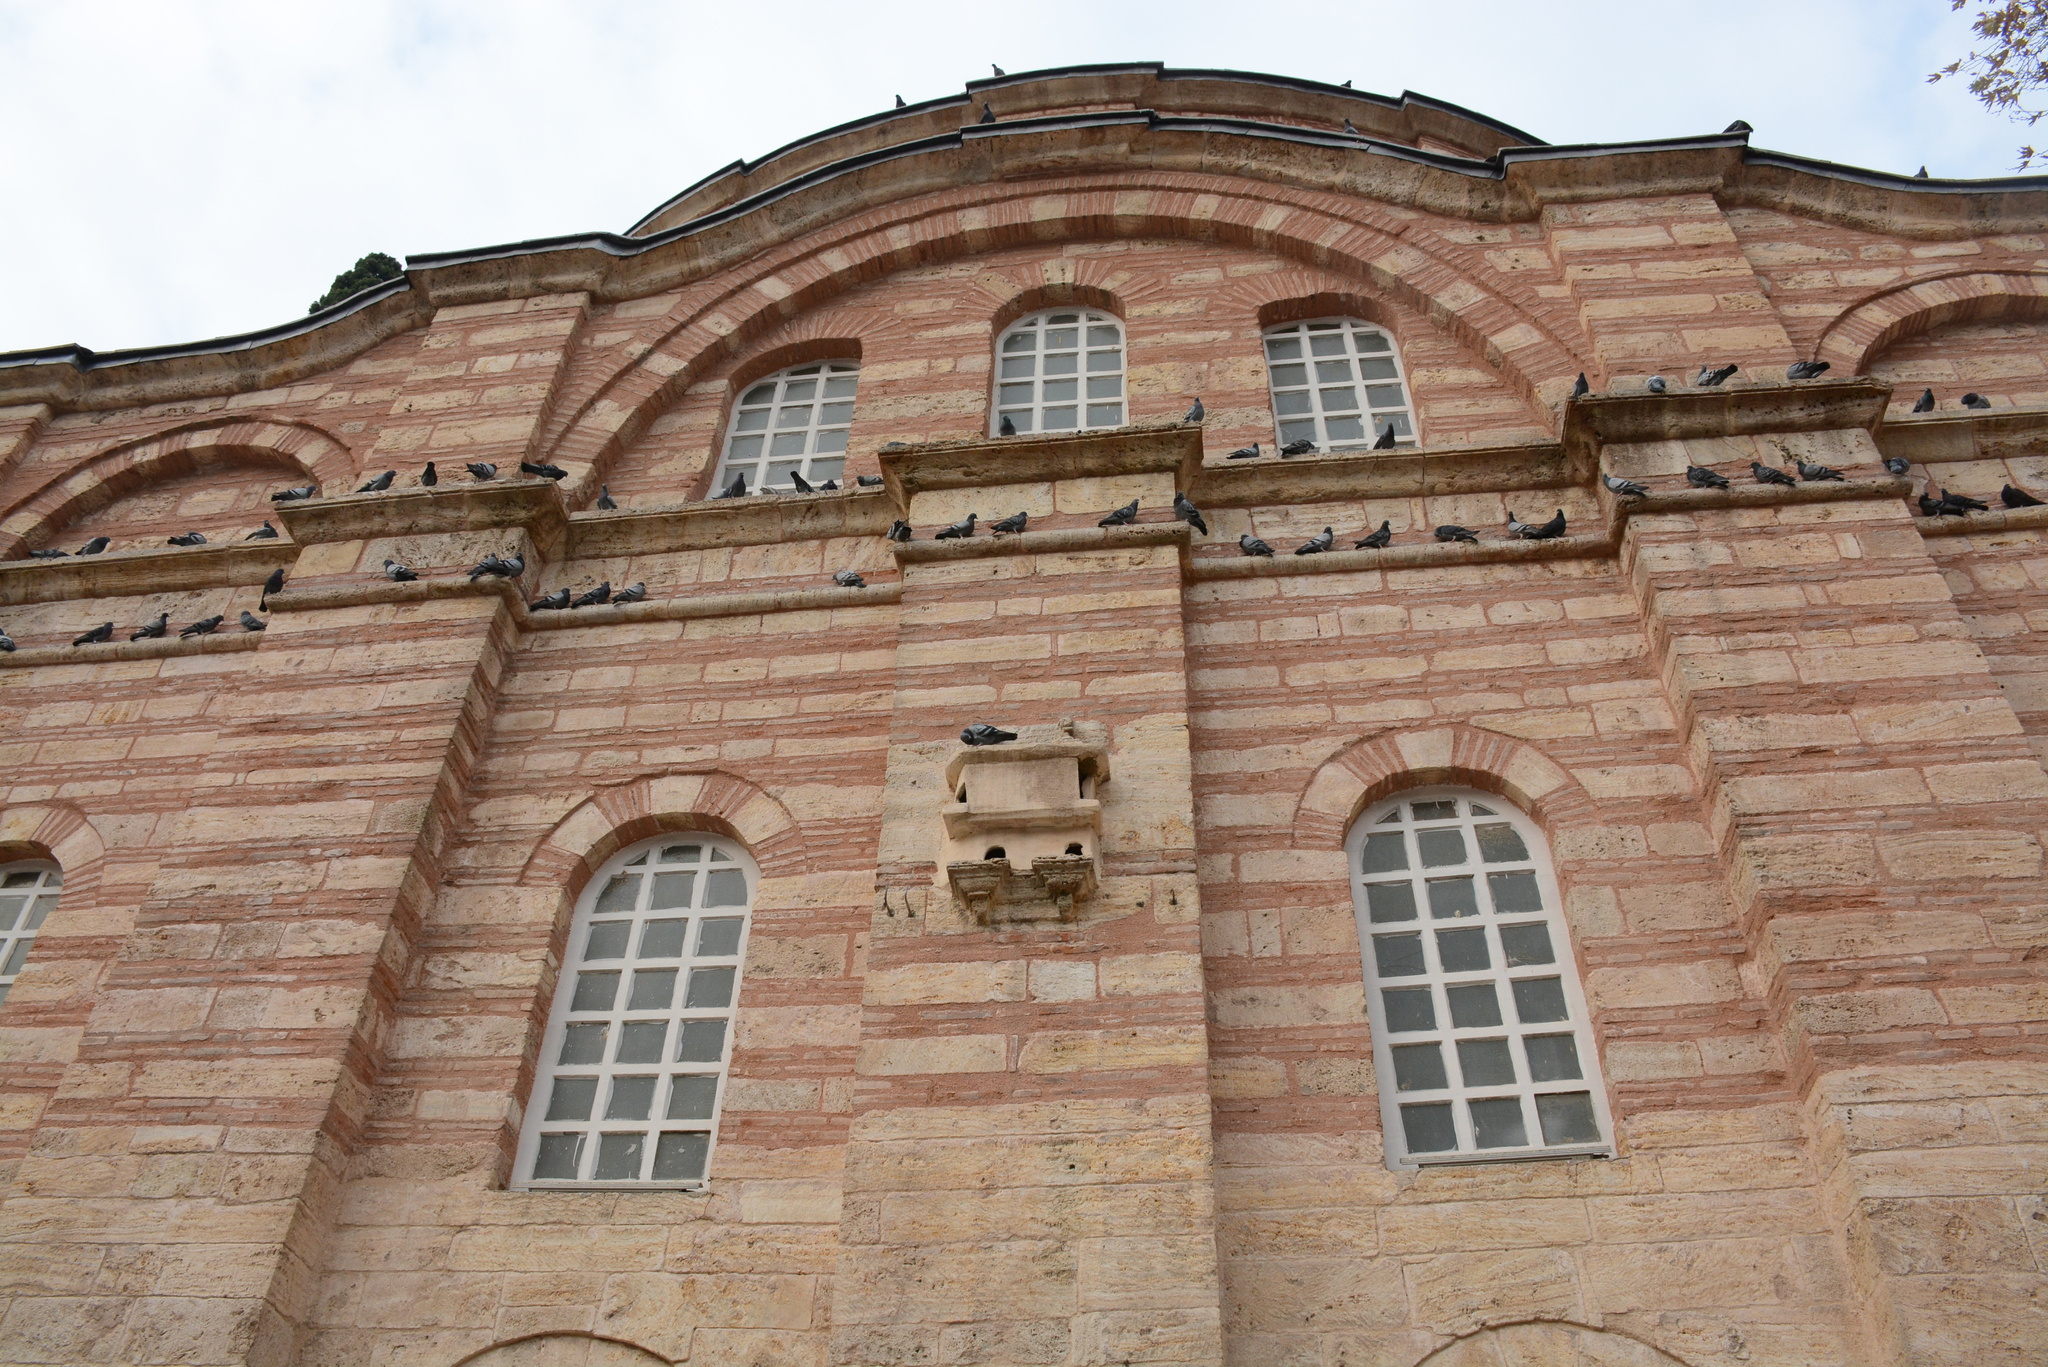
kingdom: Animalia
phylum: Chordata
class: Aves
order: Columbiformes
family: Columbidae
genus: Columba
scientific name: Columba livia
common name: Rock pigeon
